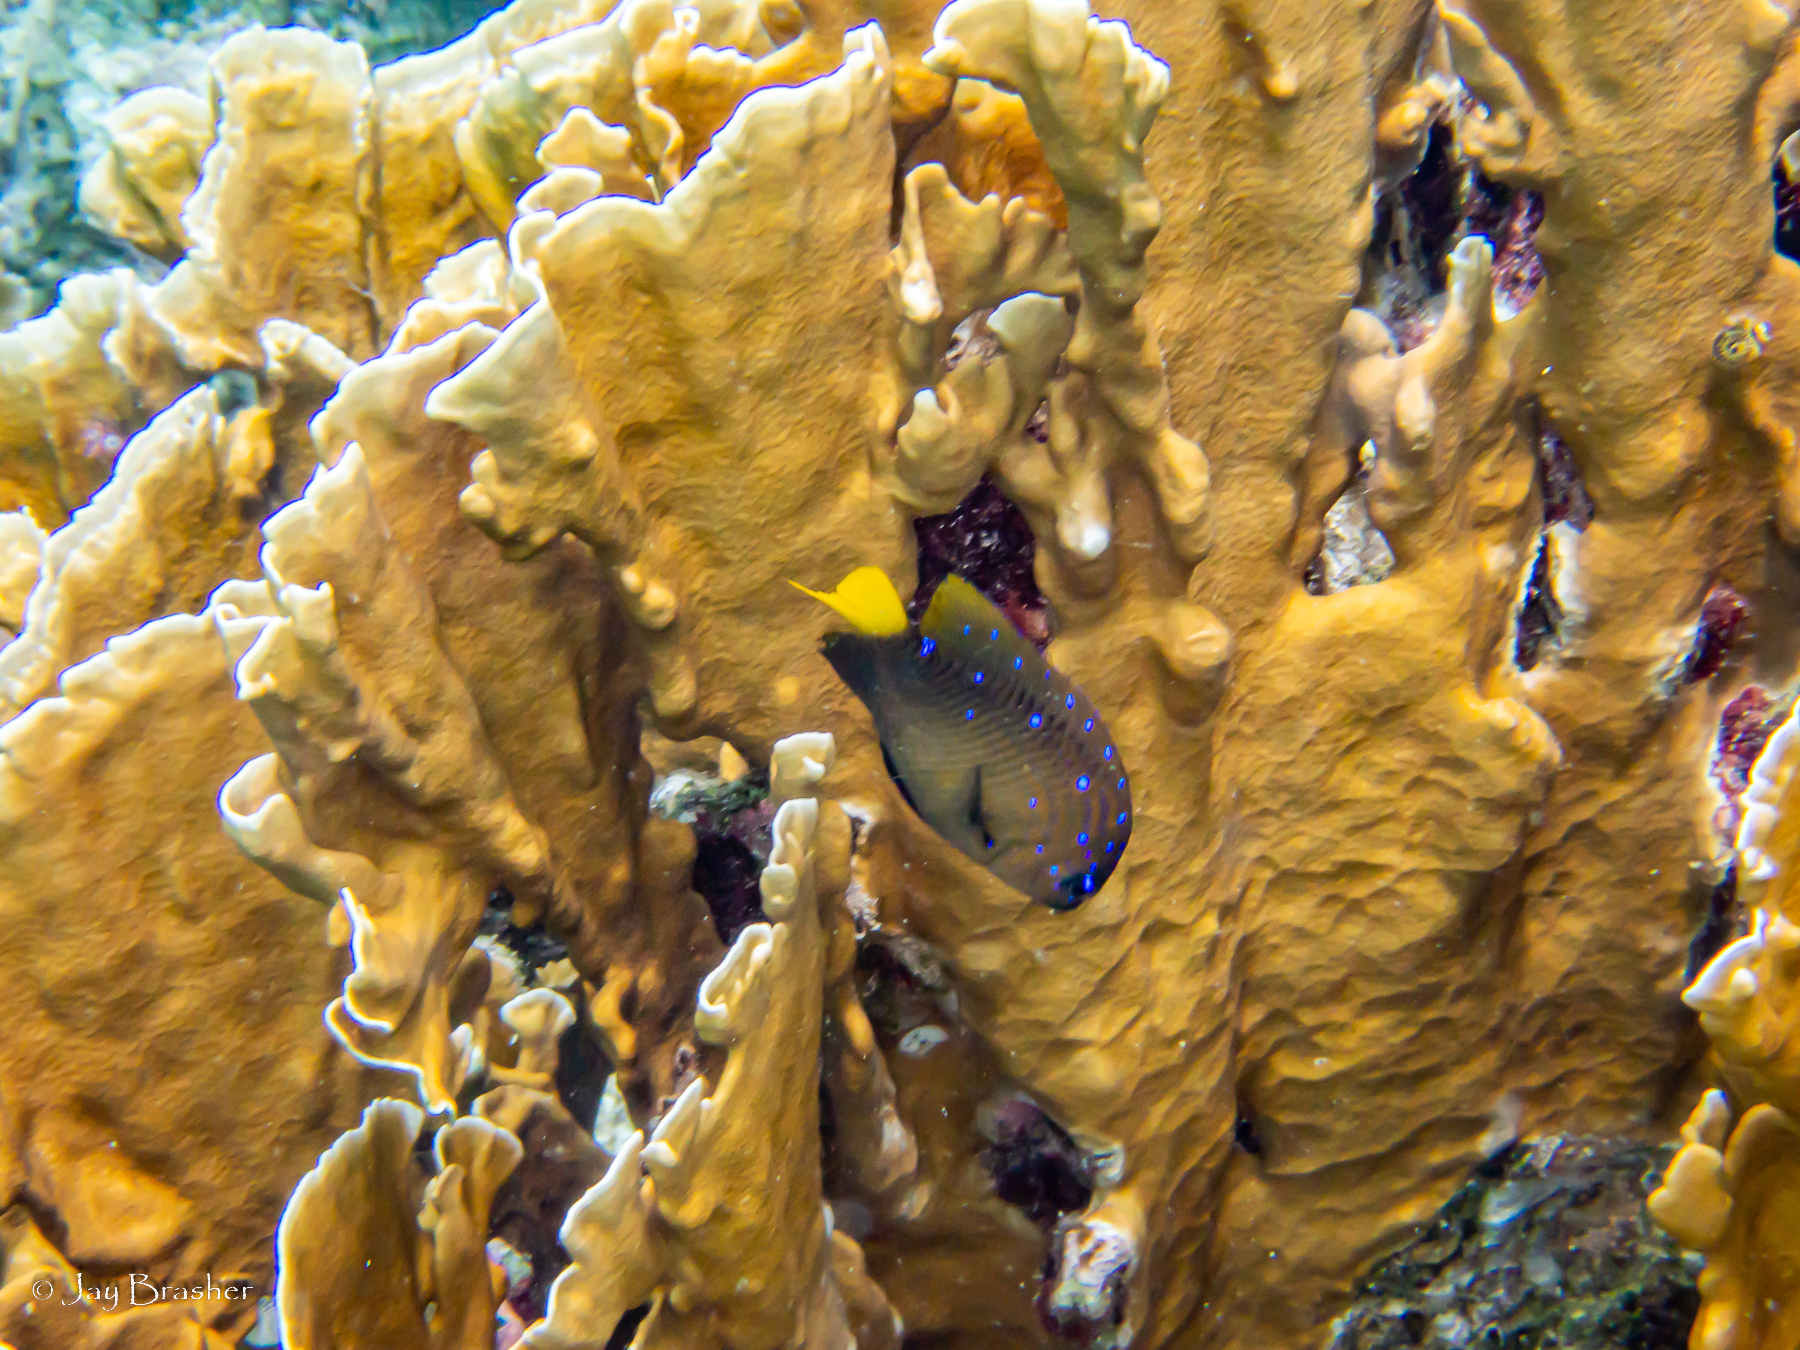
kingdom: Animalia
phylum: Cnidaria
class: Hydrozoa
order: Anthoathecata
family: Milleporidae
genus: Millepora
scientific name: Millepora complanata
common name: Bladed fire coral
